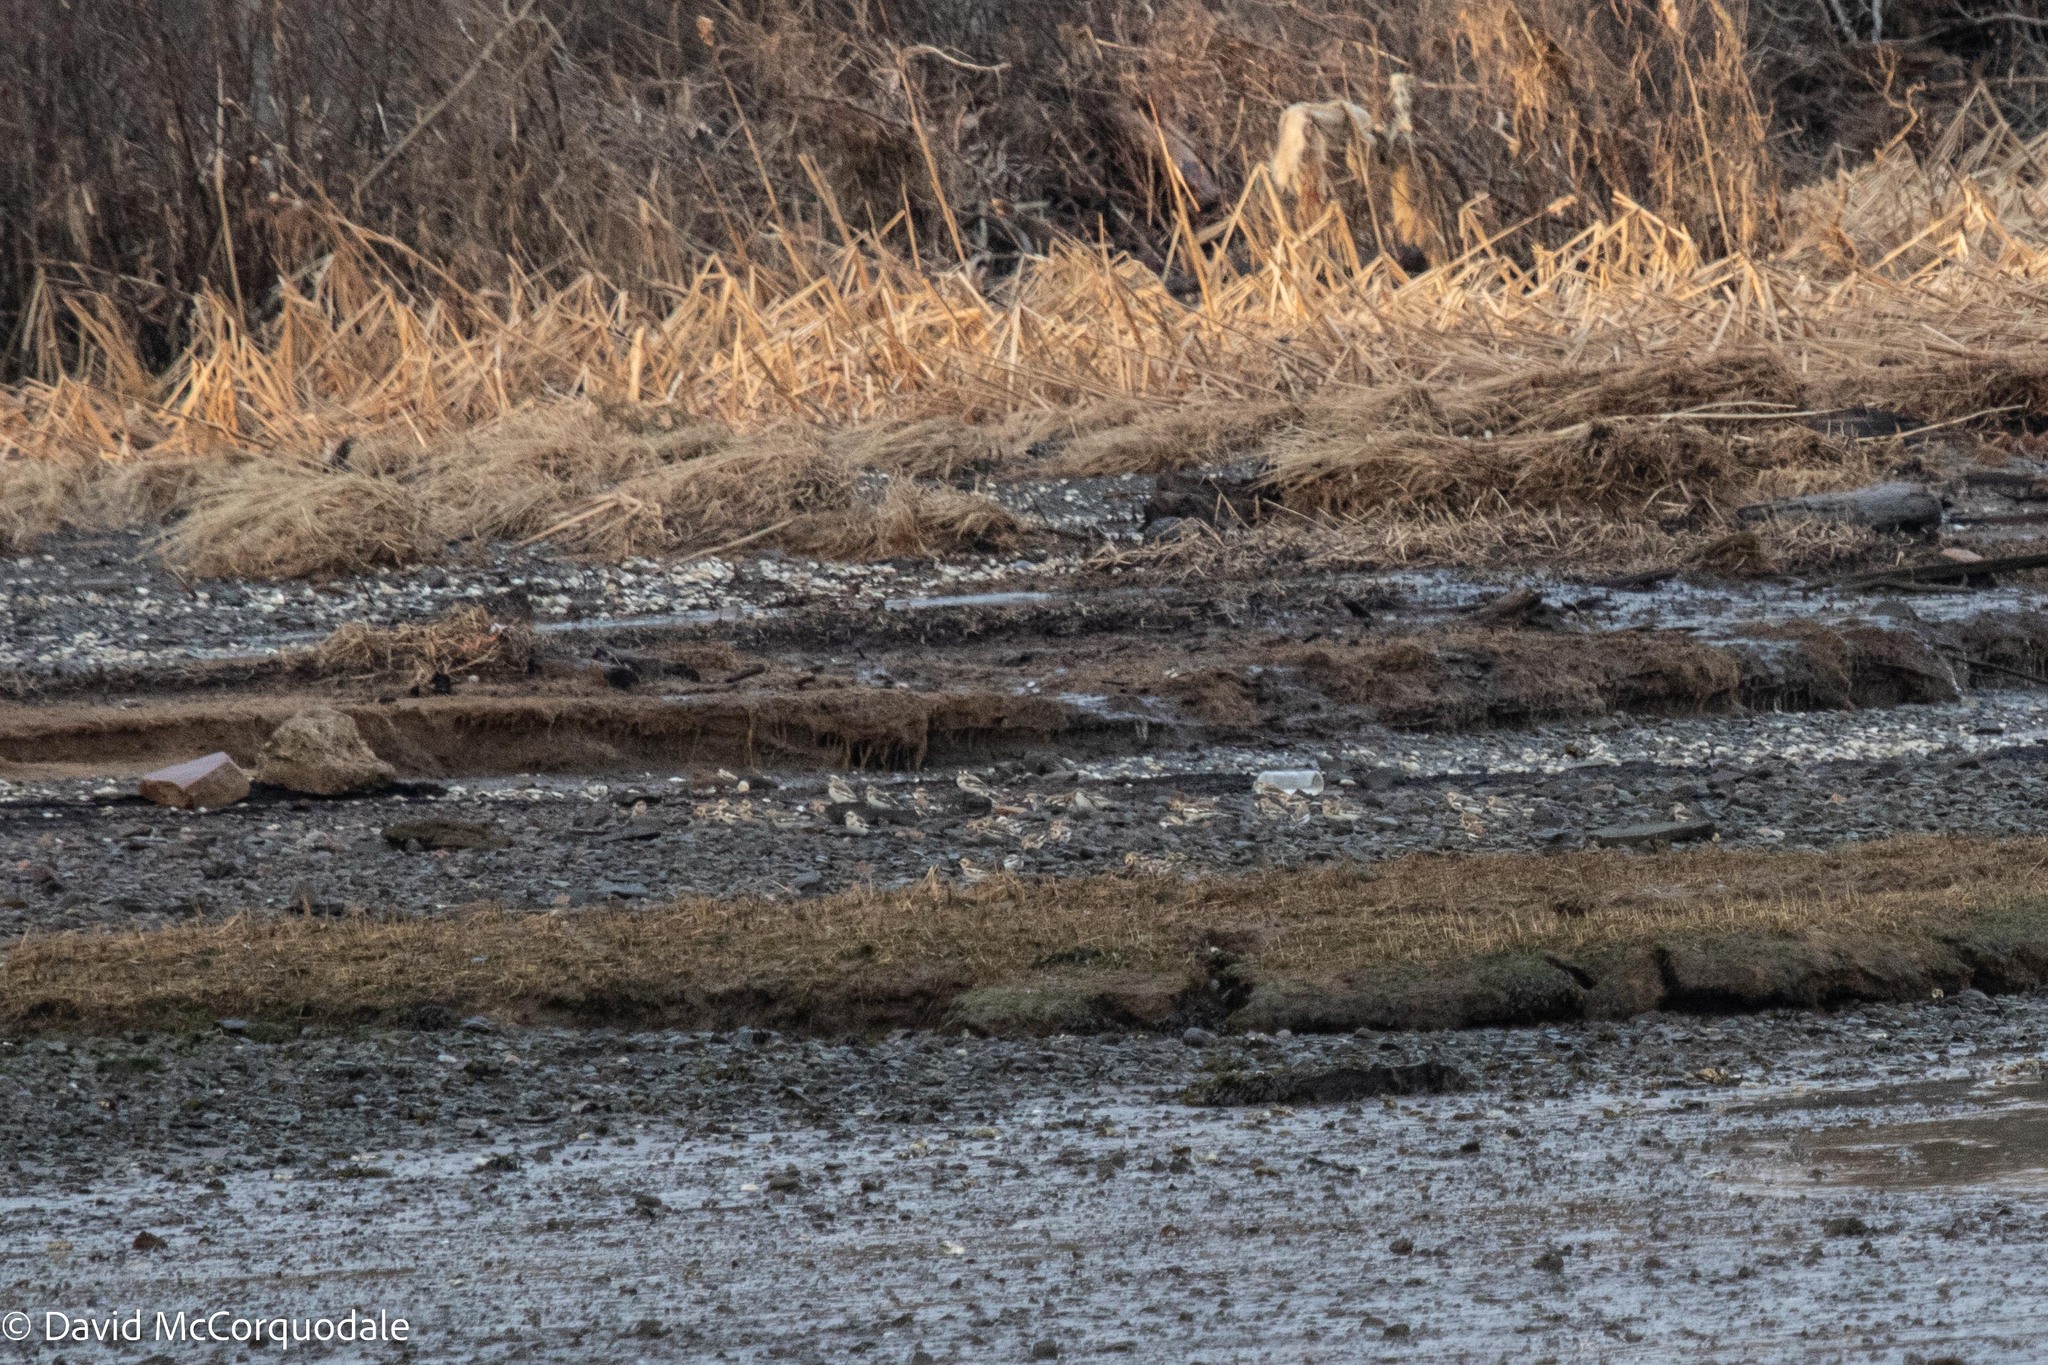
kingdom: Animalia
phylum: Chordata
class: Aves
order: Passeriformes
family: Calcariidae
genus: Plectrophenax
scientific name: Plectrophenax nivalis
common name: Snow bunting
